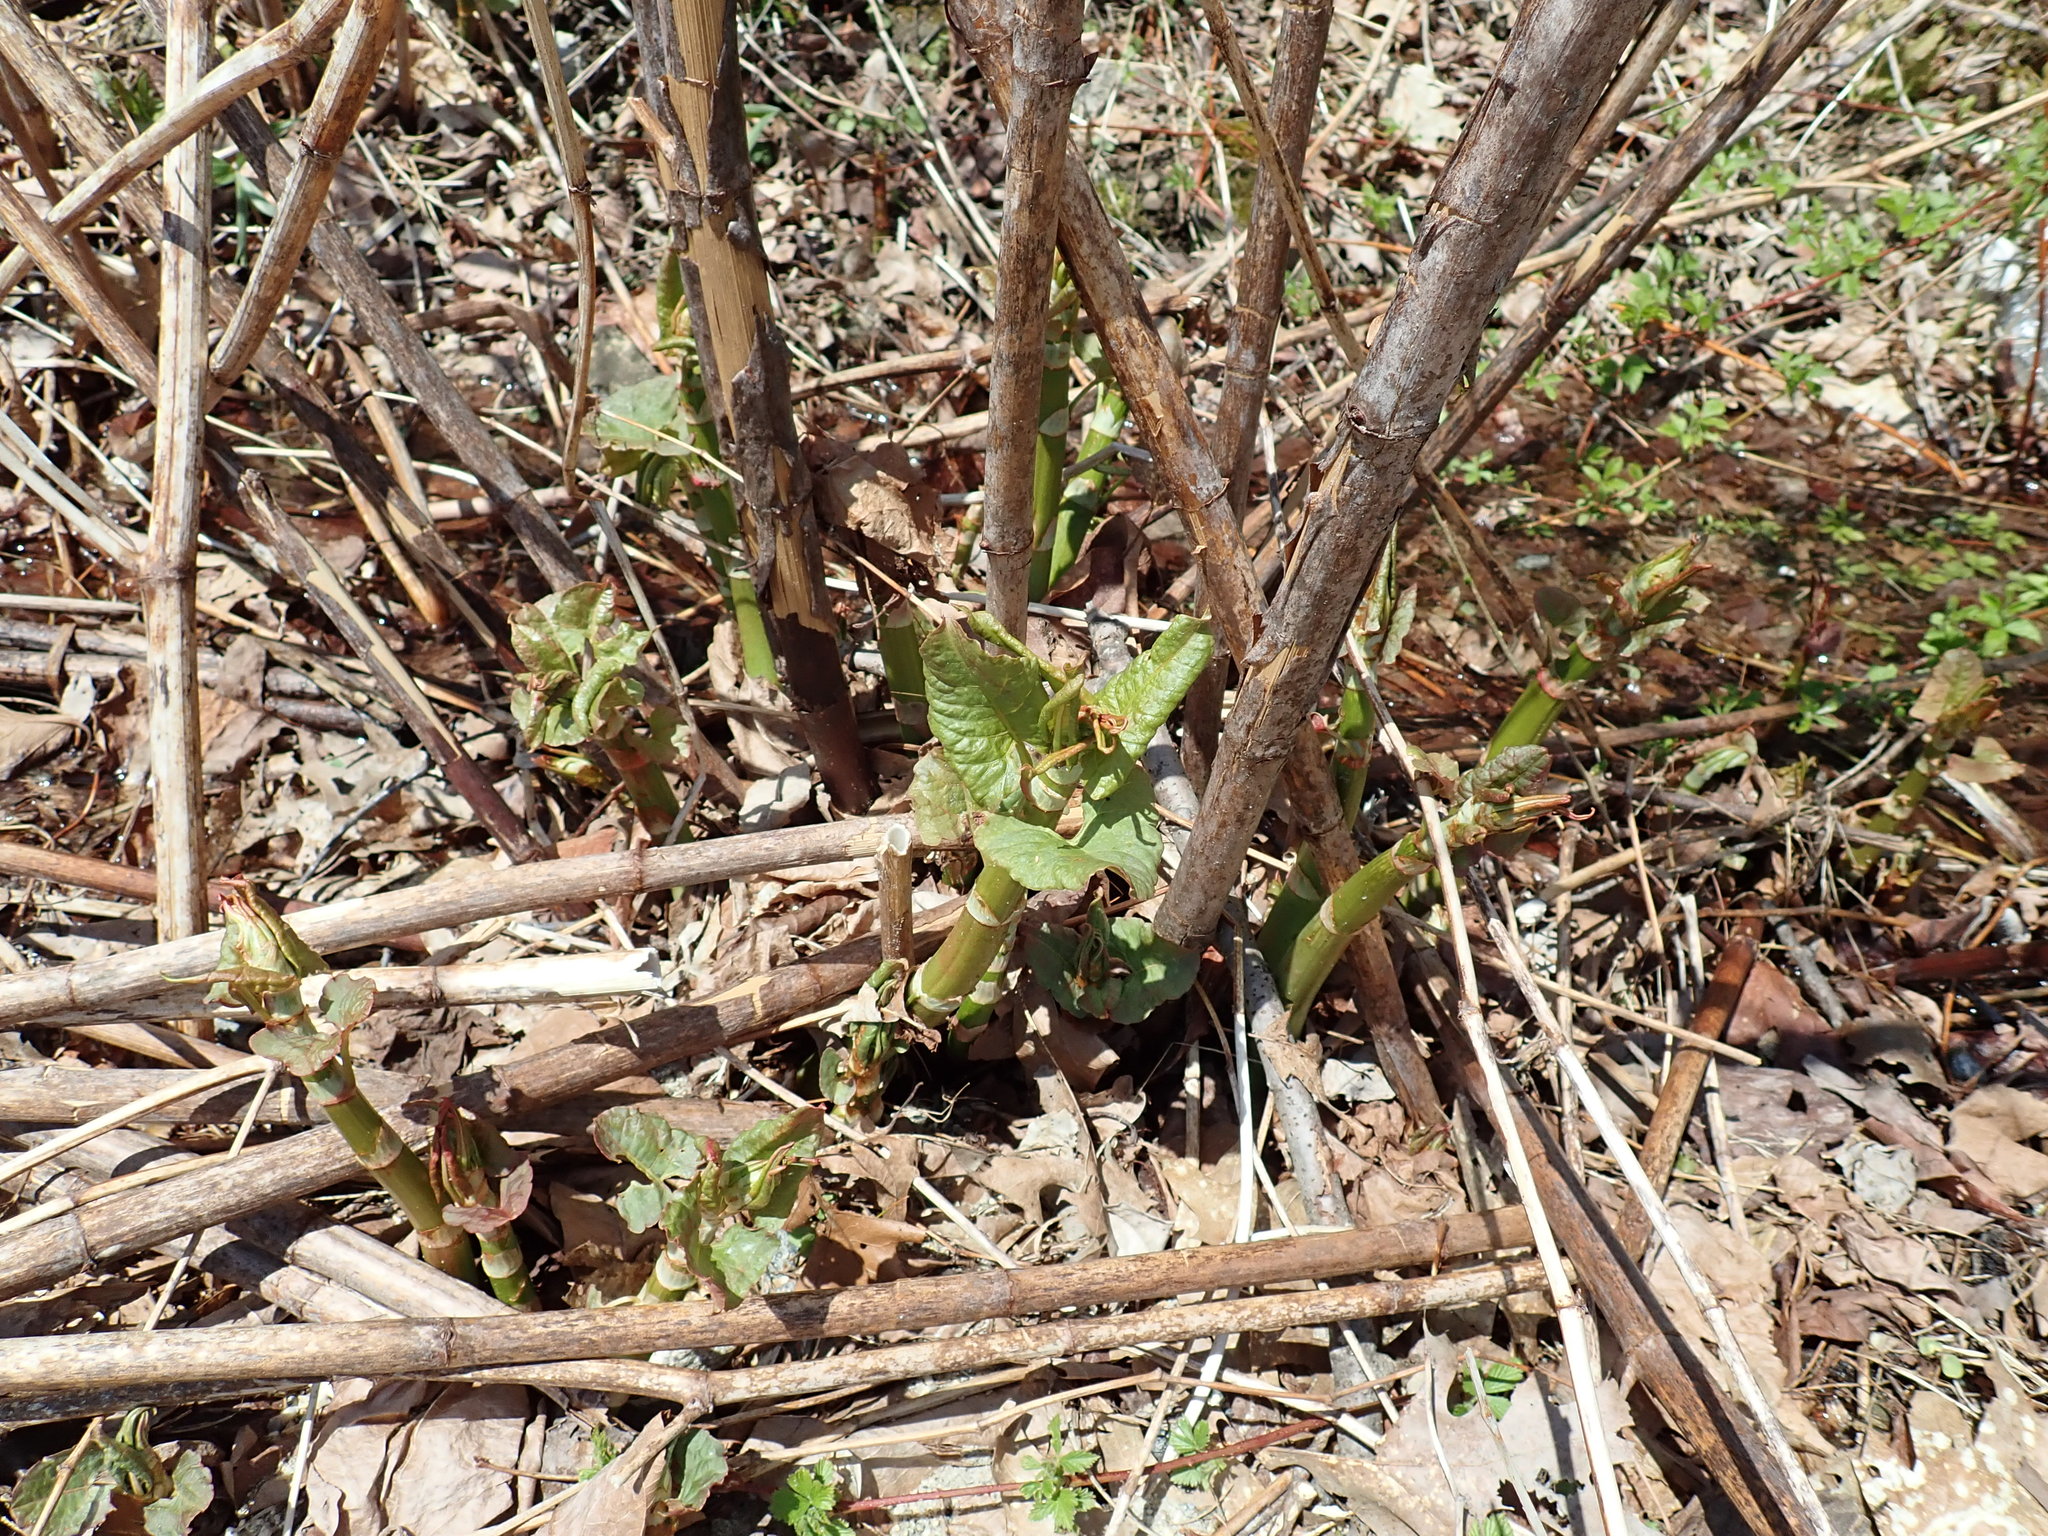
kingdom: Plantae
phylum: Tracheophyta
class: Magnoliopsida
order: Caryophyllales
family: Polygonaceae
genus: Reynoutria
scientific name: Reynoutria
